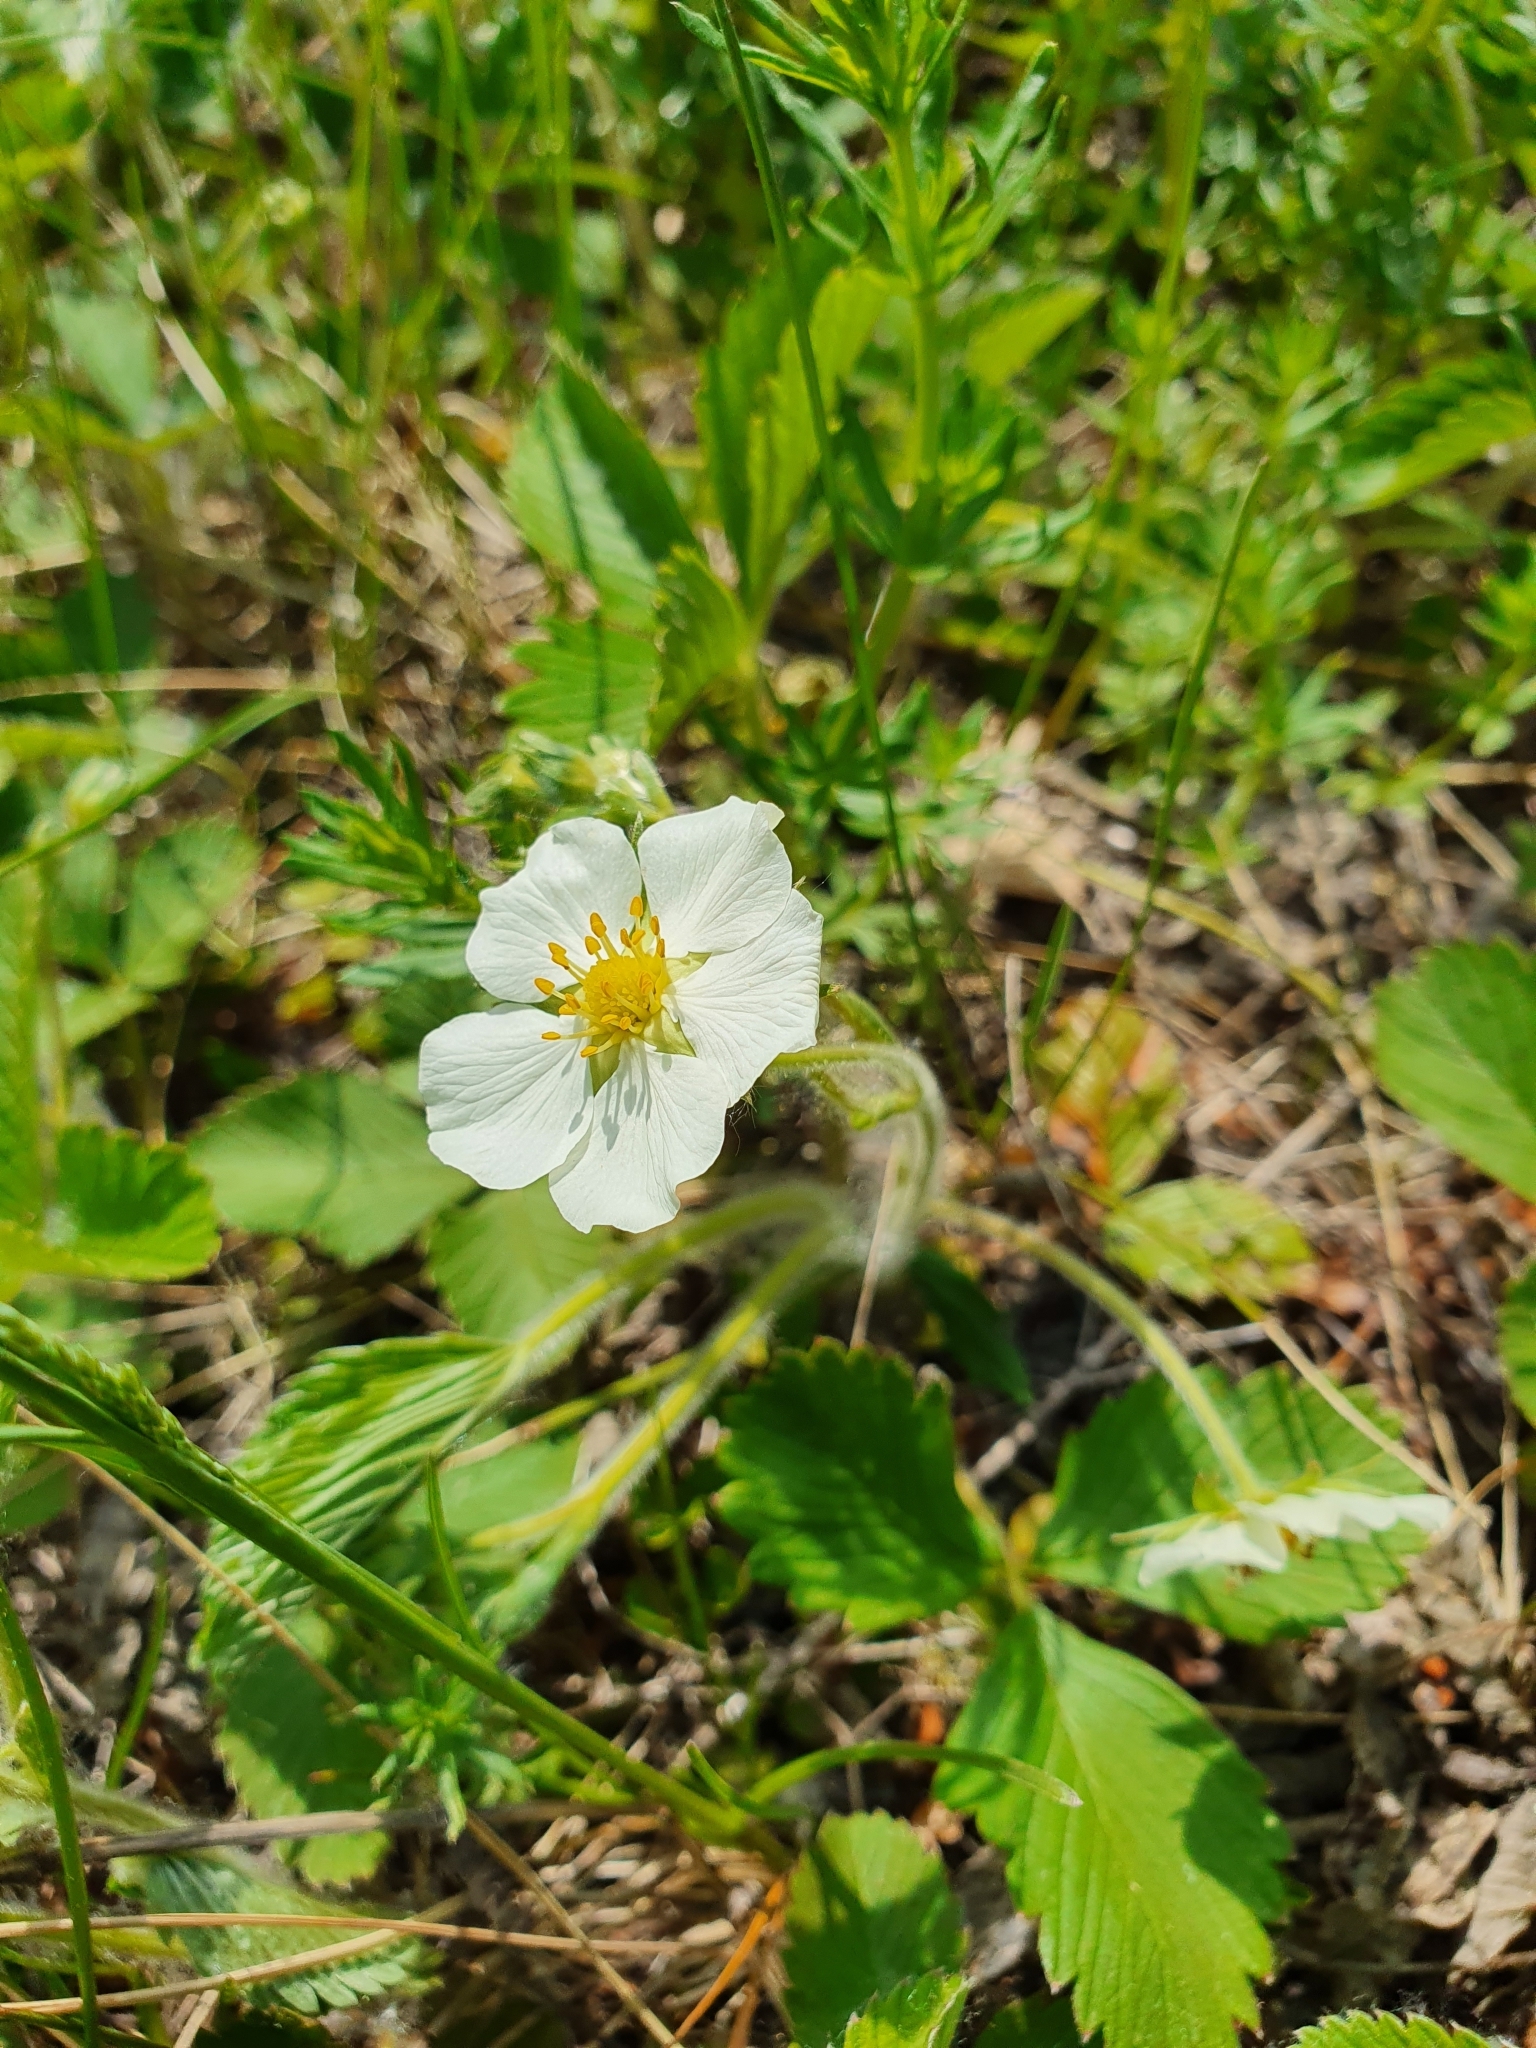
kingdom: Plantae
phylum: Tracheophyta
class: Magnoliopsida
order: Rosales
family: Rosaceae
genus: Fragaria
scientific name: Fragaria viridis
